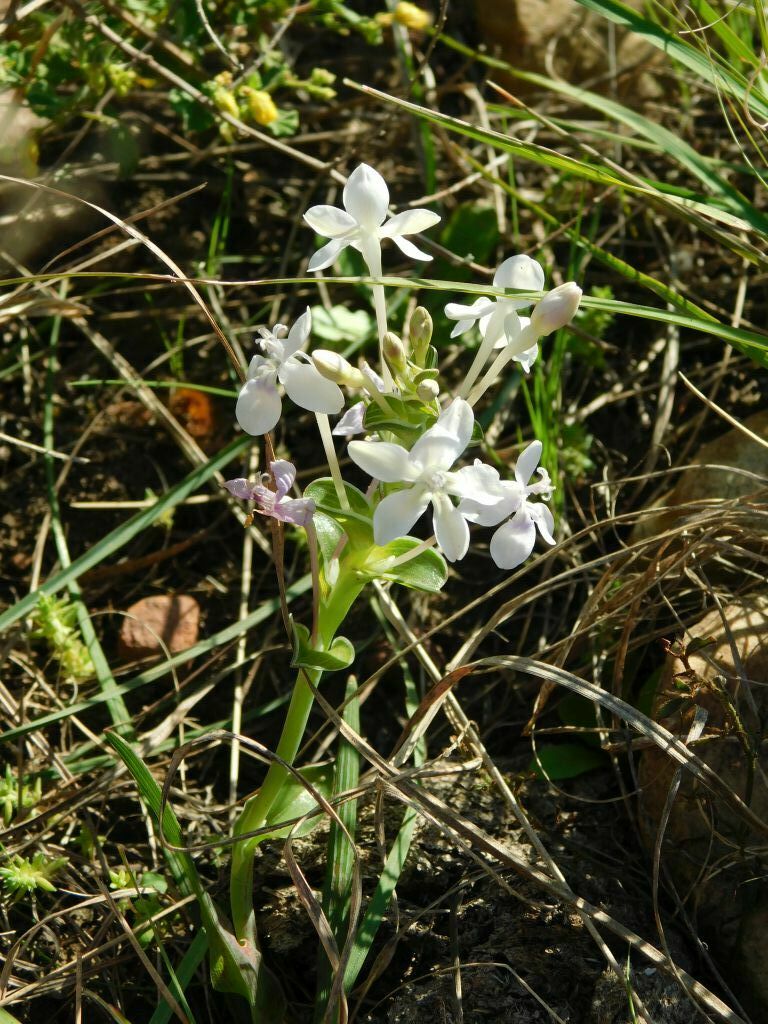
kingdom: Plantae
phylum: Tracheophyta
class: Liliopsida
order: Asparagales
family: Iridaceae
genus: Lapeirousia
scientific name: Lapeirousia pyramidalis
